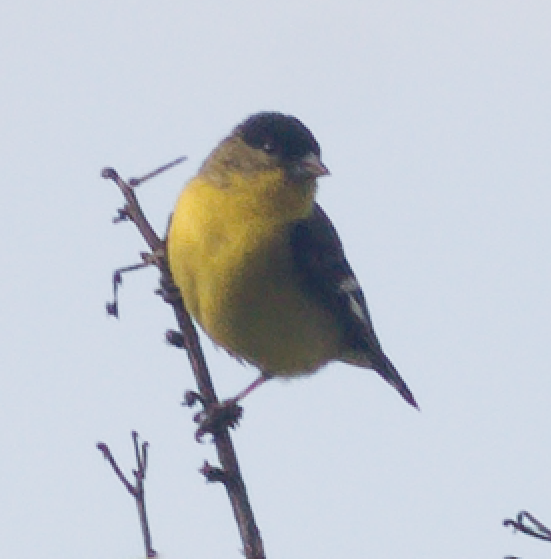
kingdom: Animalia
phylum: Chordata
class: Aves
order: Passeriformes
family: Fringillidae
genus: Spinus
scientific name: Spinus psaltria
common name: Lesser goldfinch
